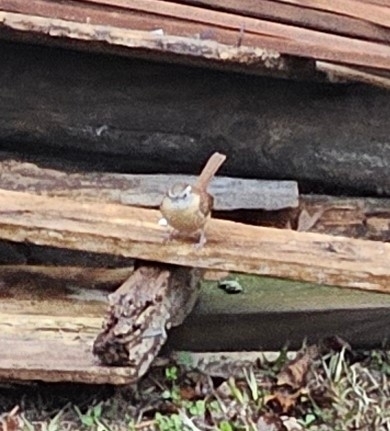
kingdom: Animalia
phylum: Chordata
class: Aves
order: Passeriformes
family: Troglodytidae
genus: Thryothorus
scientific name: Thryothorus ludovicianus
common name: Carolina wren
